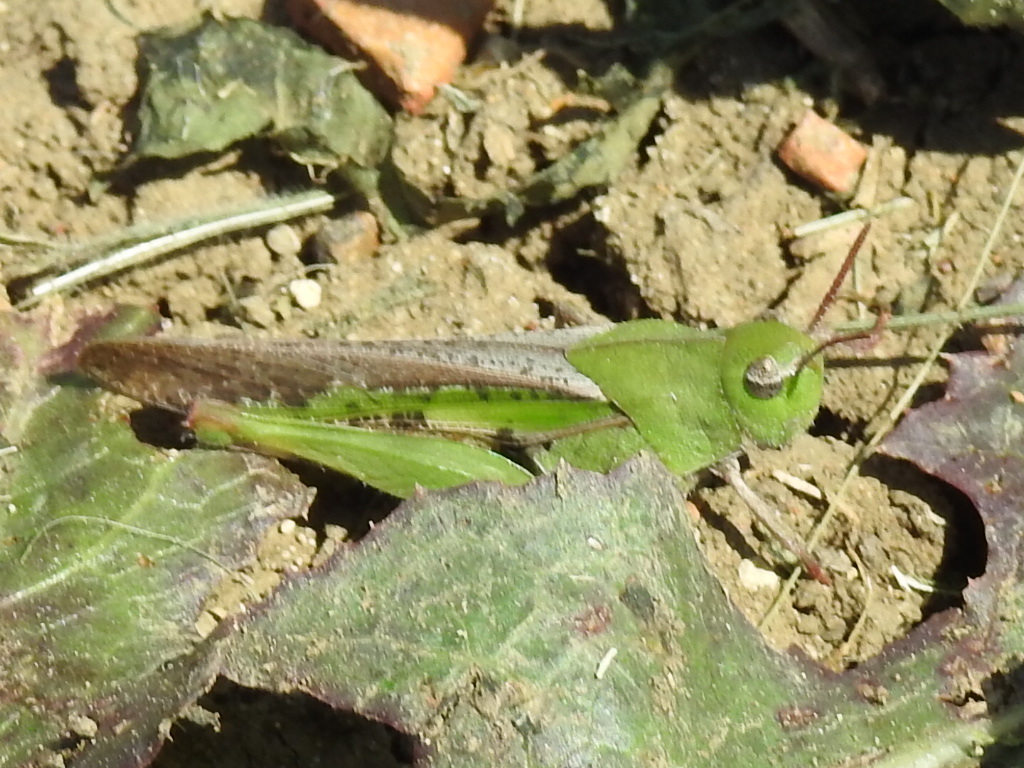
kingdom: Animalia
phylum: Arthropoda
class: Insecta
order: Orthoptera
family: Acrididae
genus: Chortophaga
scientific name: Chortophaga viridifasciata
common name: Green-striped grasshopper
